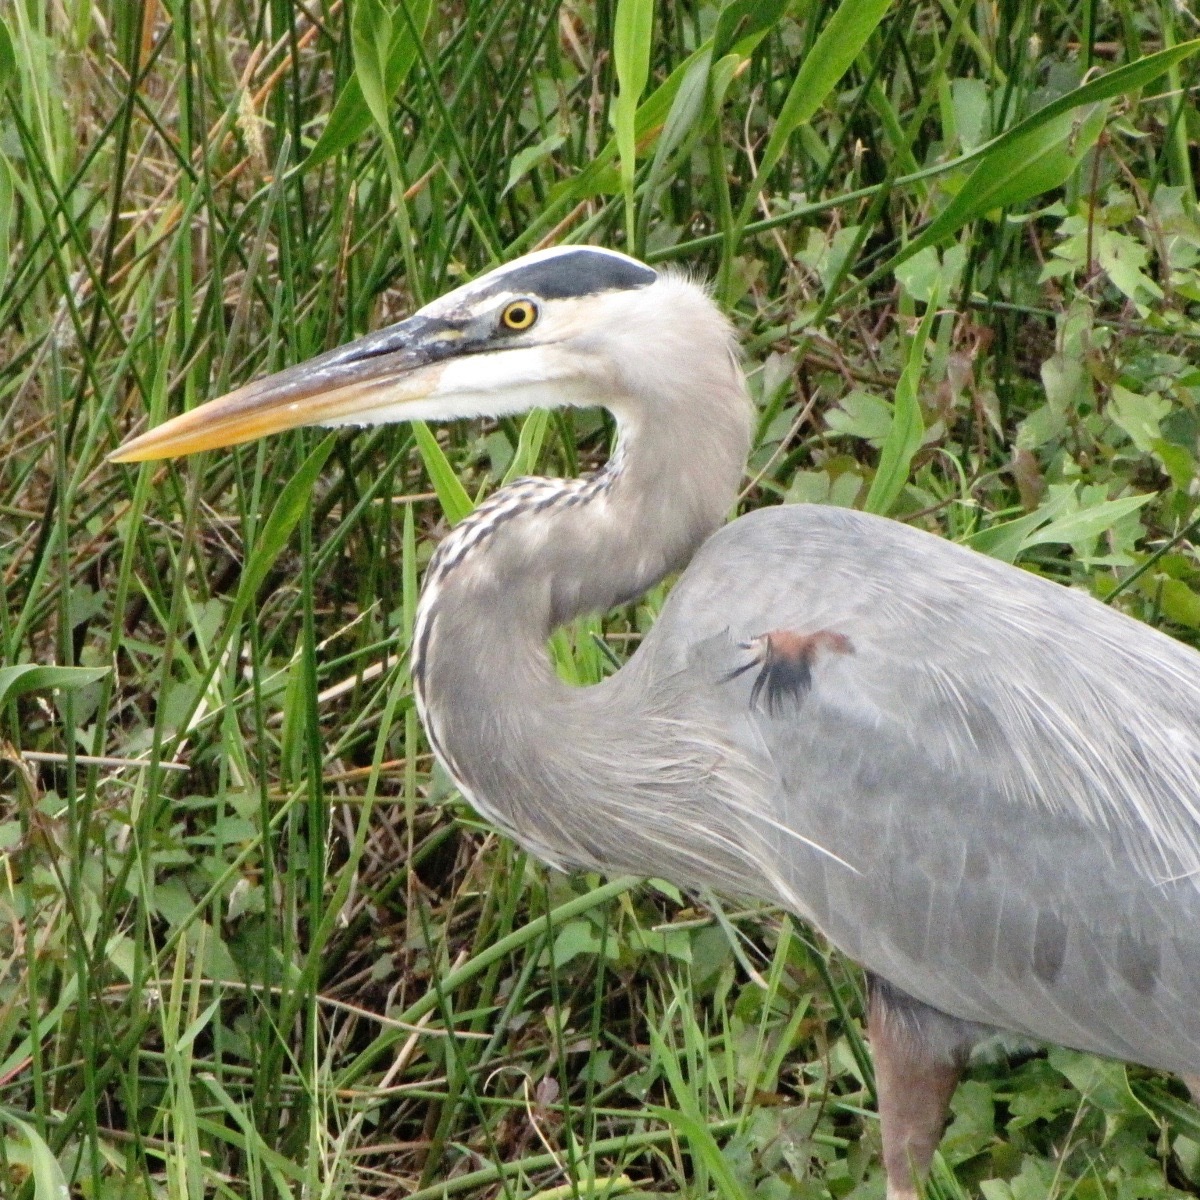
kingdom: Animalia
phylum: Chordata
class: Aves
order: Pelecaniformes
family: Ardeidae
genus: Ardea
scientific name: Ardea herodias
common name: Great blue heron
